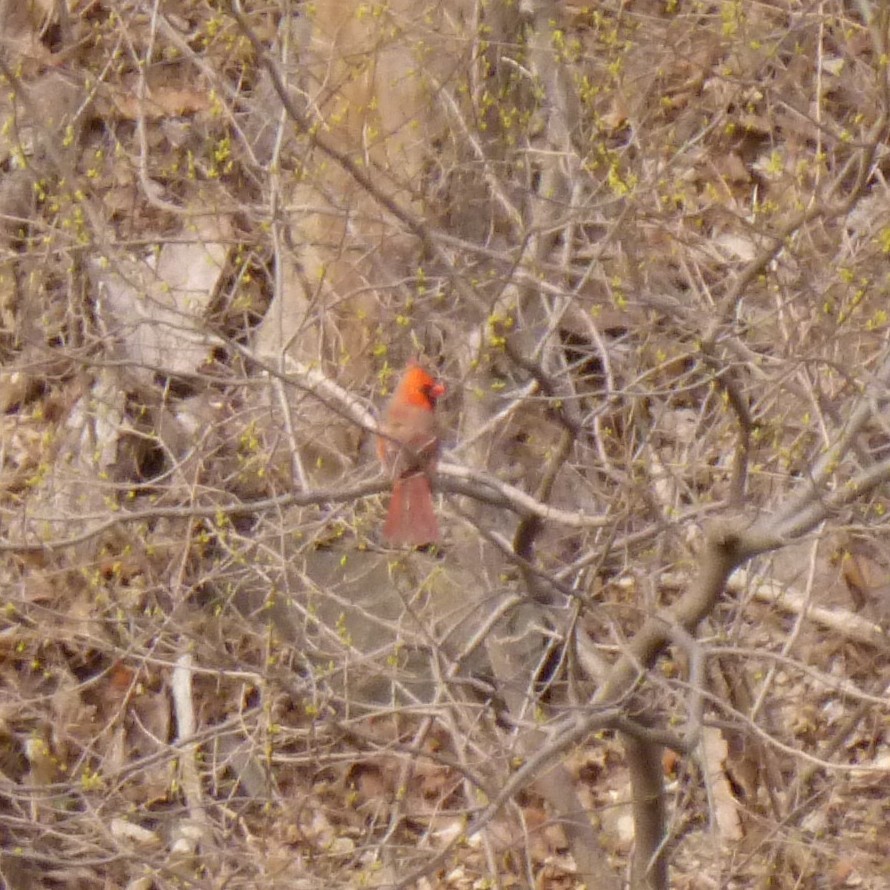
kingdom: Animalia
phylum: Chordata
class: Aves
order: Passeriformes
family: Cardinalidae
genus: Cardinalis
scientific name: Cardinalis cardinalis
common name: Northern cardinal
